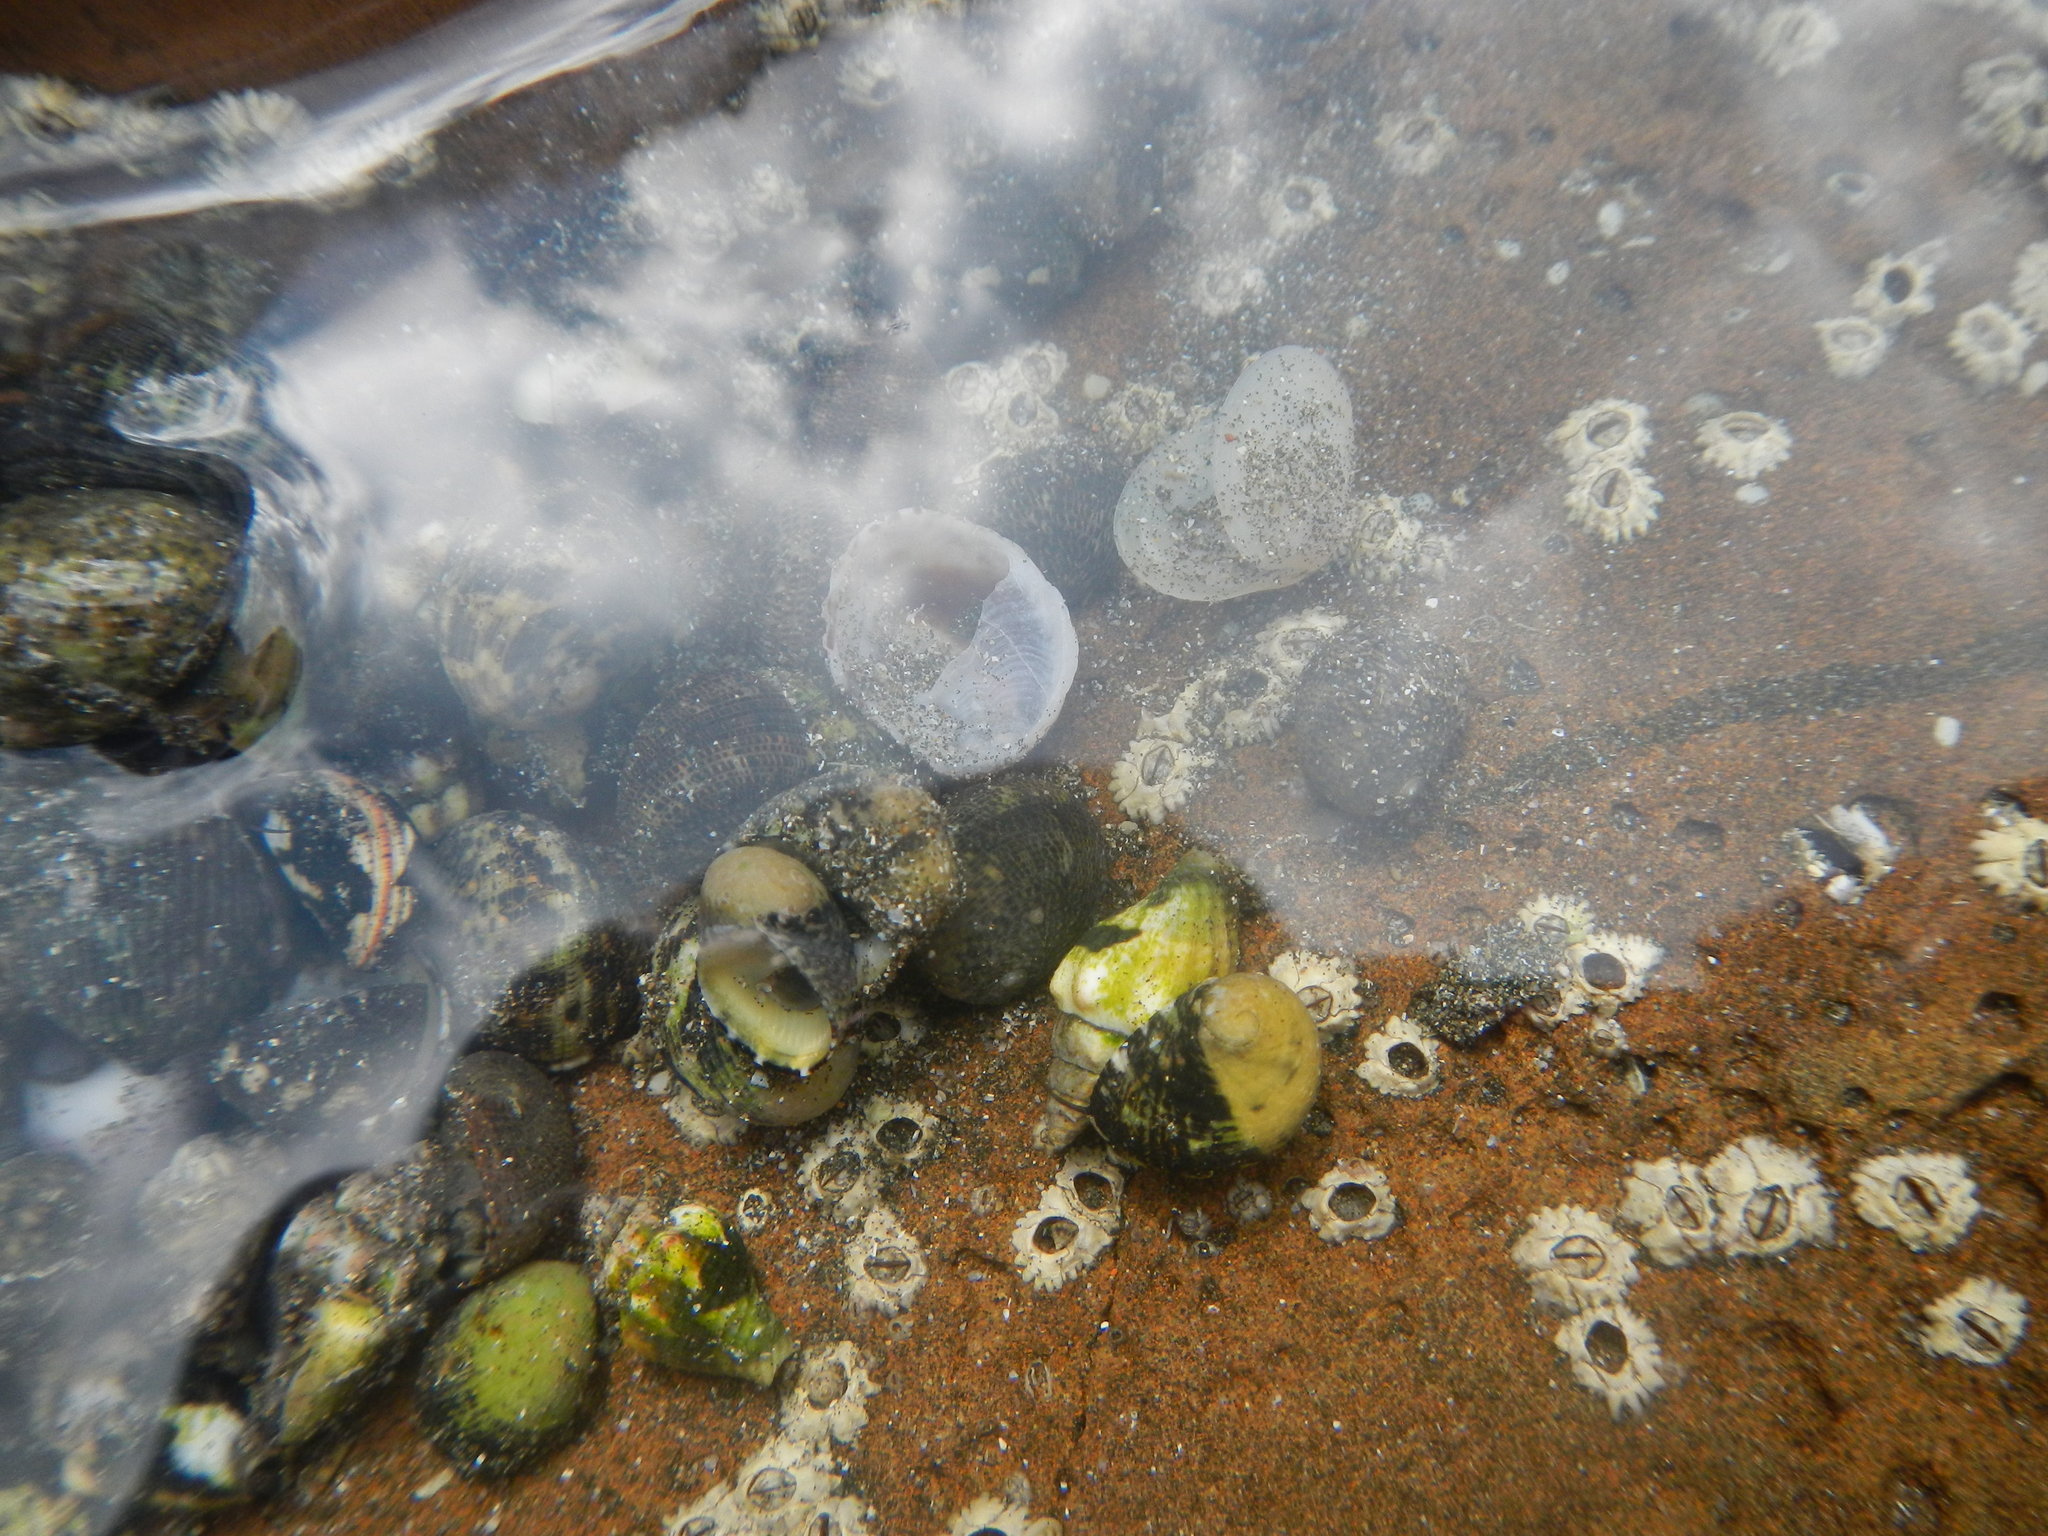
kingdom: Animalia
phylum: Mollusca
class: Gastropoda
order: Neogastropoda
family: Columbellidae
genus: Anachis
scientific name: Anachis rugosa
